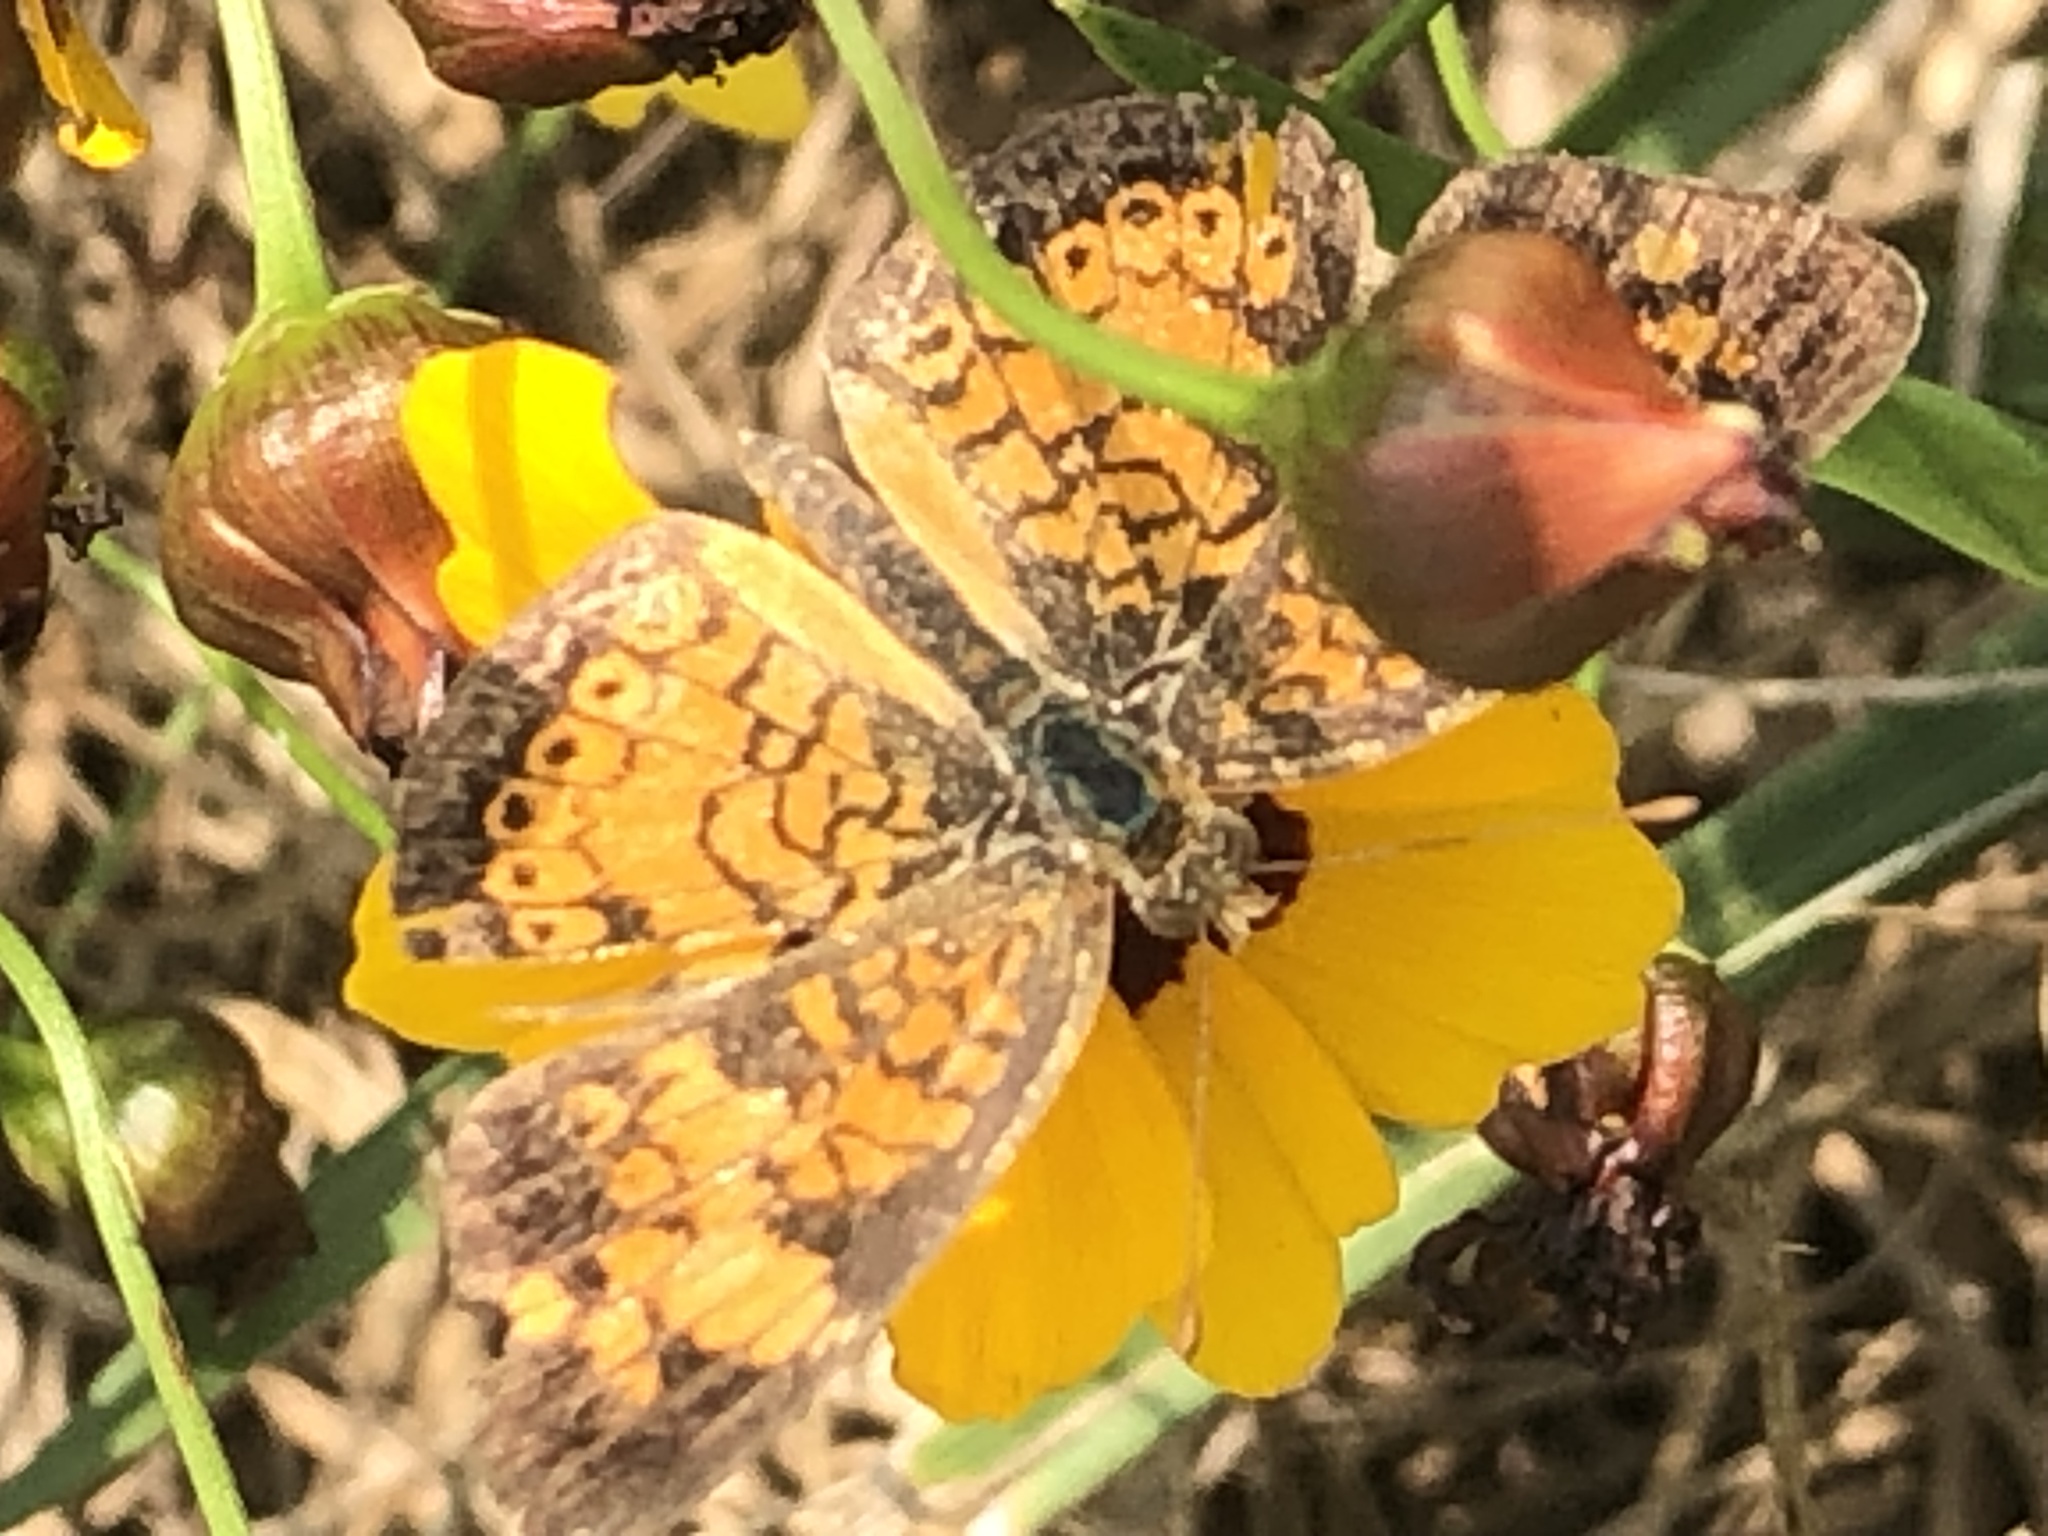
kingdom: Animalia
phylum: Arthropoda
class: Insecta
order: Lepidoptera
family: Nymphalidae
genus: Phyciodes
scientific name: Phyciodes tharos
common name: Pearl crescent
